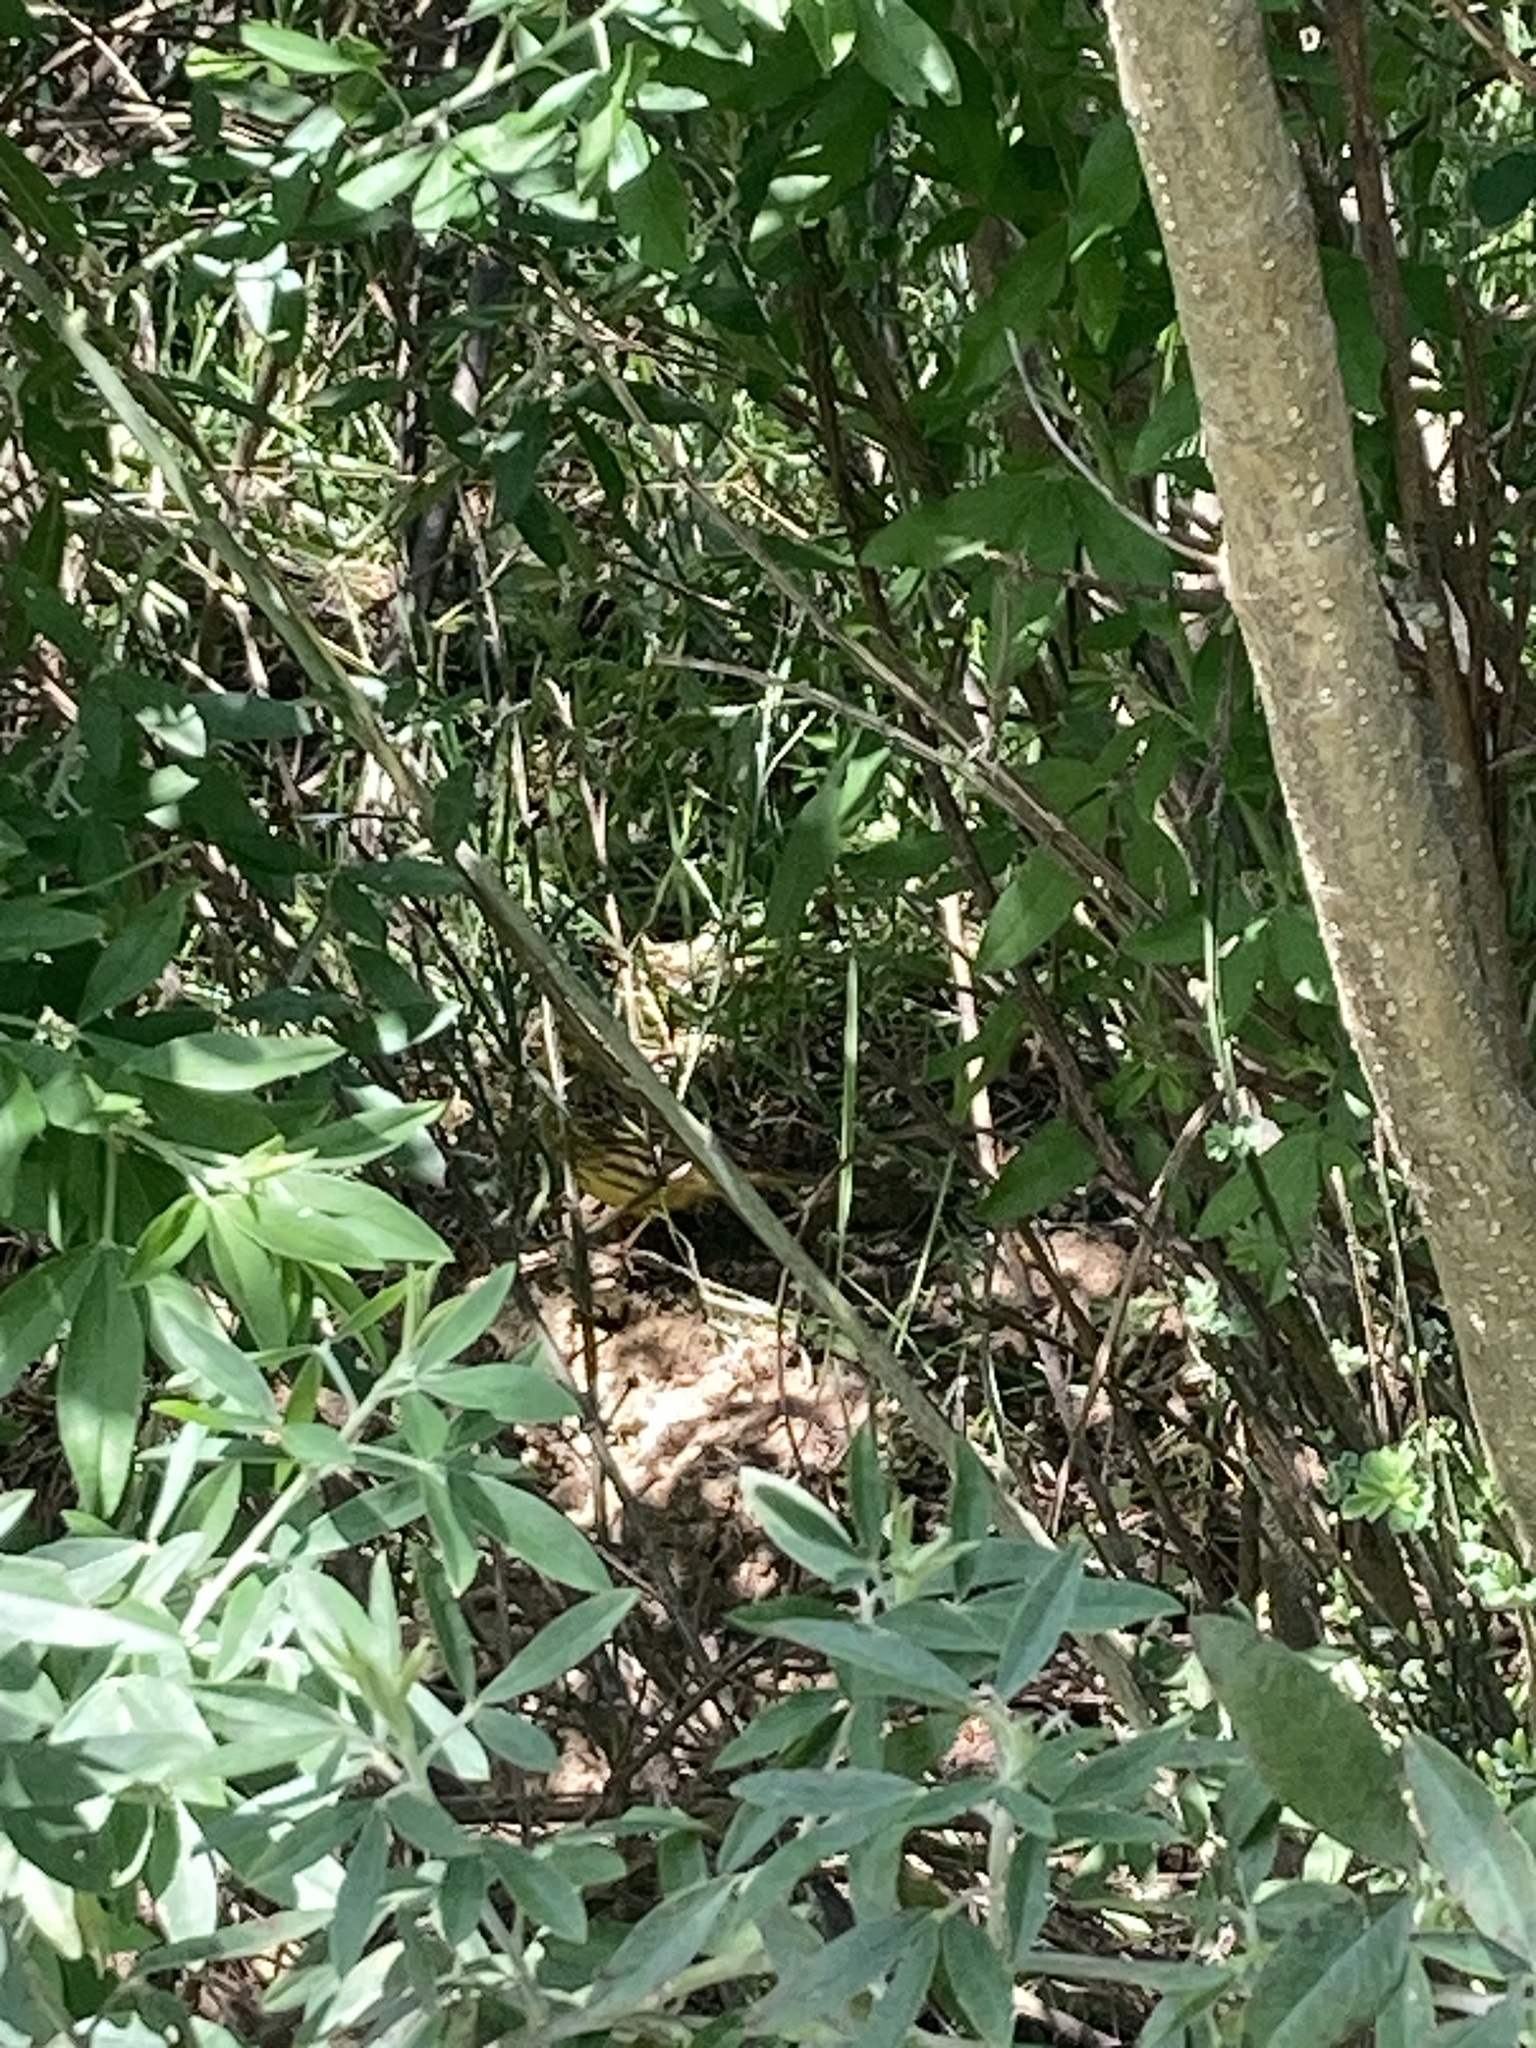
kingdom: Animalia
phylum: Chordata
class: Aves
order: Passeriformes
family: Emberizidae
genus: Emberiza
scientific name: Emberiza citrinella
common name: Yellowhammer
